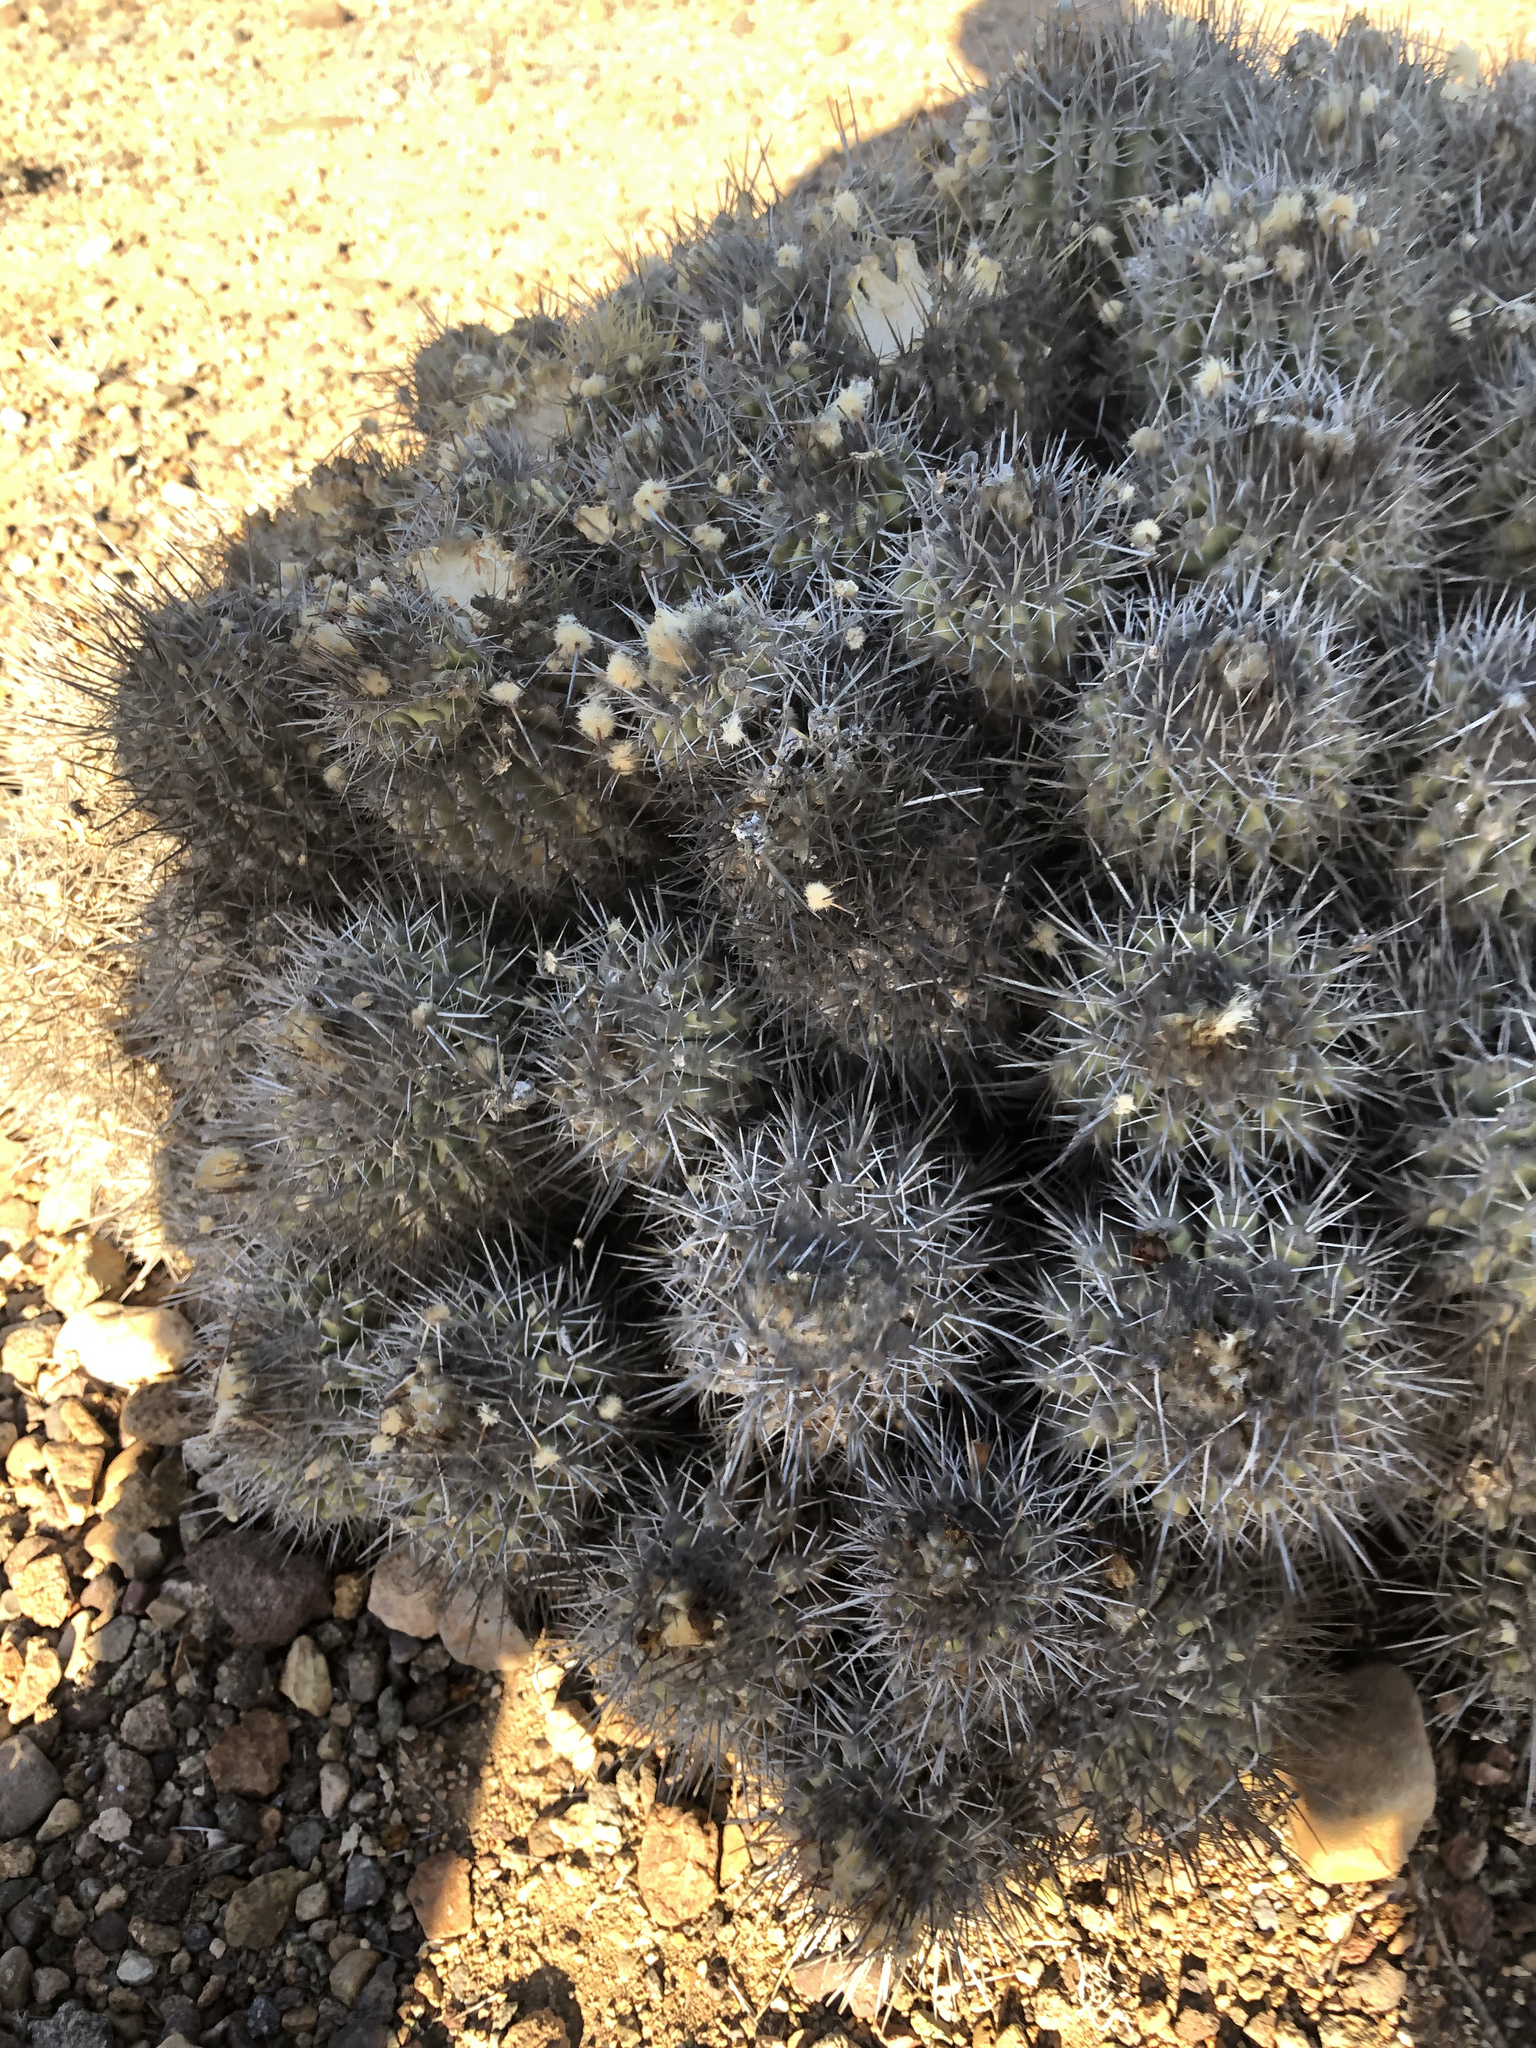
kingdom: Plantae
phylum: Tracheophyta
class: Magnoliopsida
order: Caryophyllales
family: Cactaceae
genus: Copiapoa
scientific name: Copiapoa coquimbana
